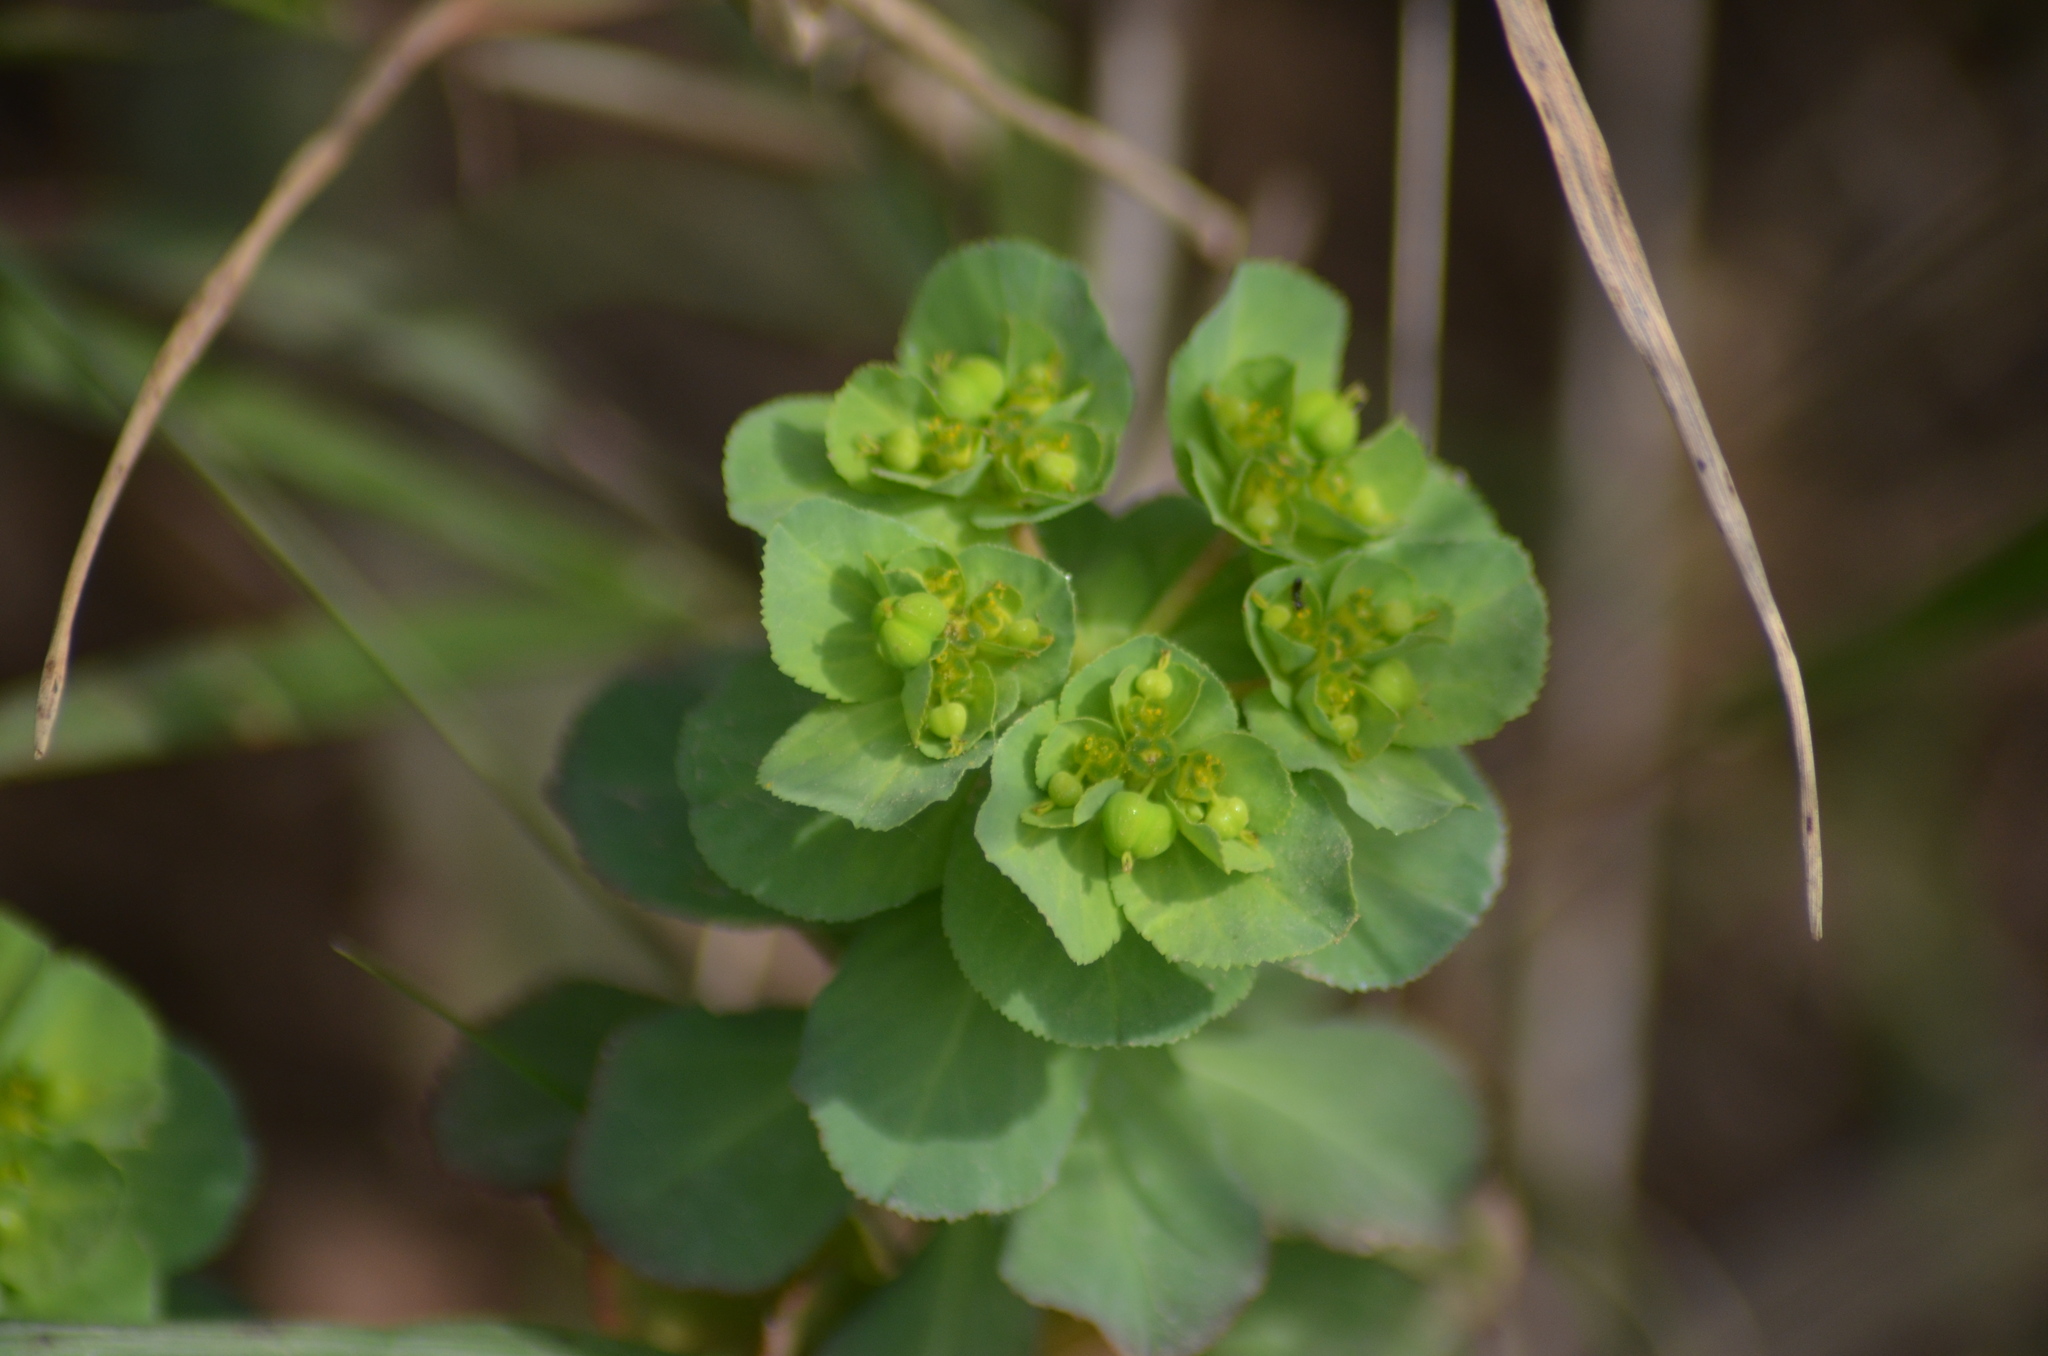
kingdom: Plantae
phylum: Tracheophyta
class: Magnoliopsida
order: Malpighiales
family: Euphorbiaceae
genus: Euphorbia
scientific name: Euphorbia helioscopia
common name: Sun spurge
